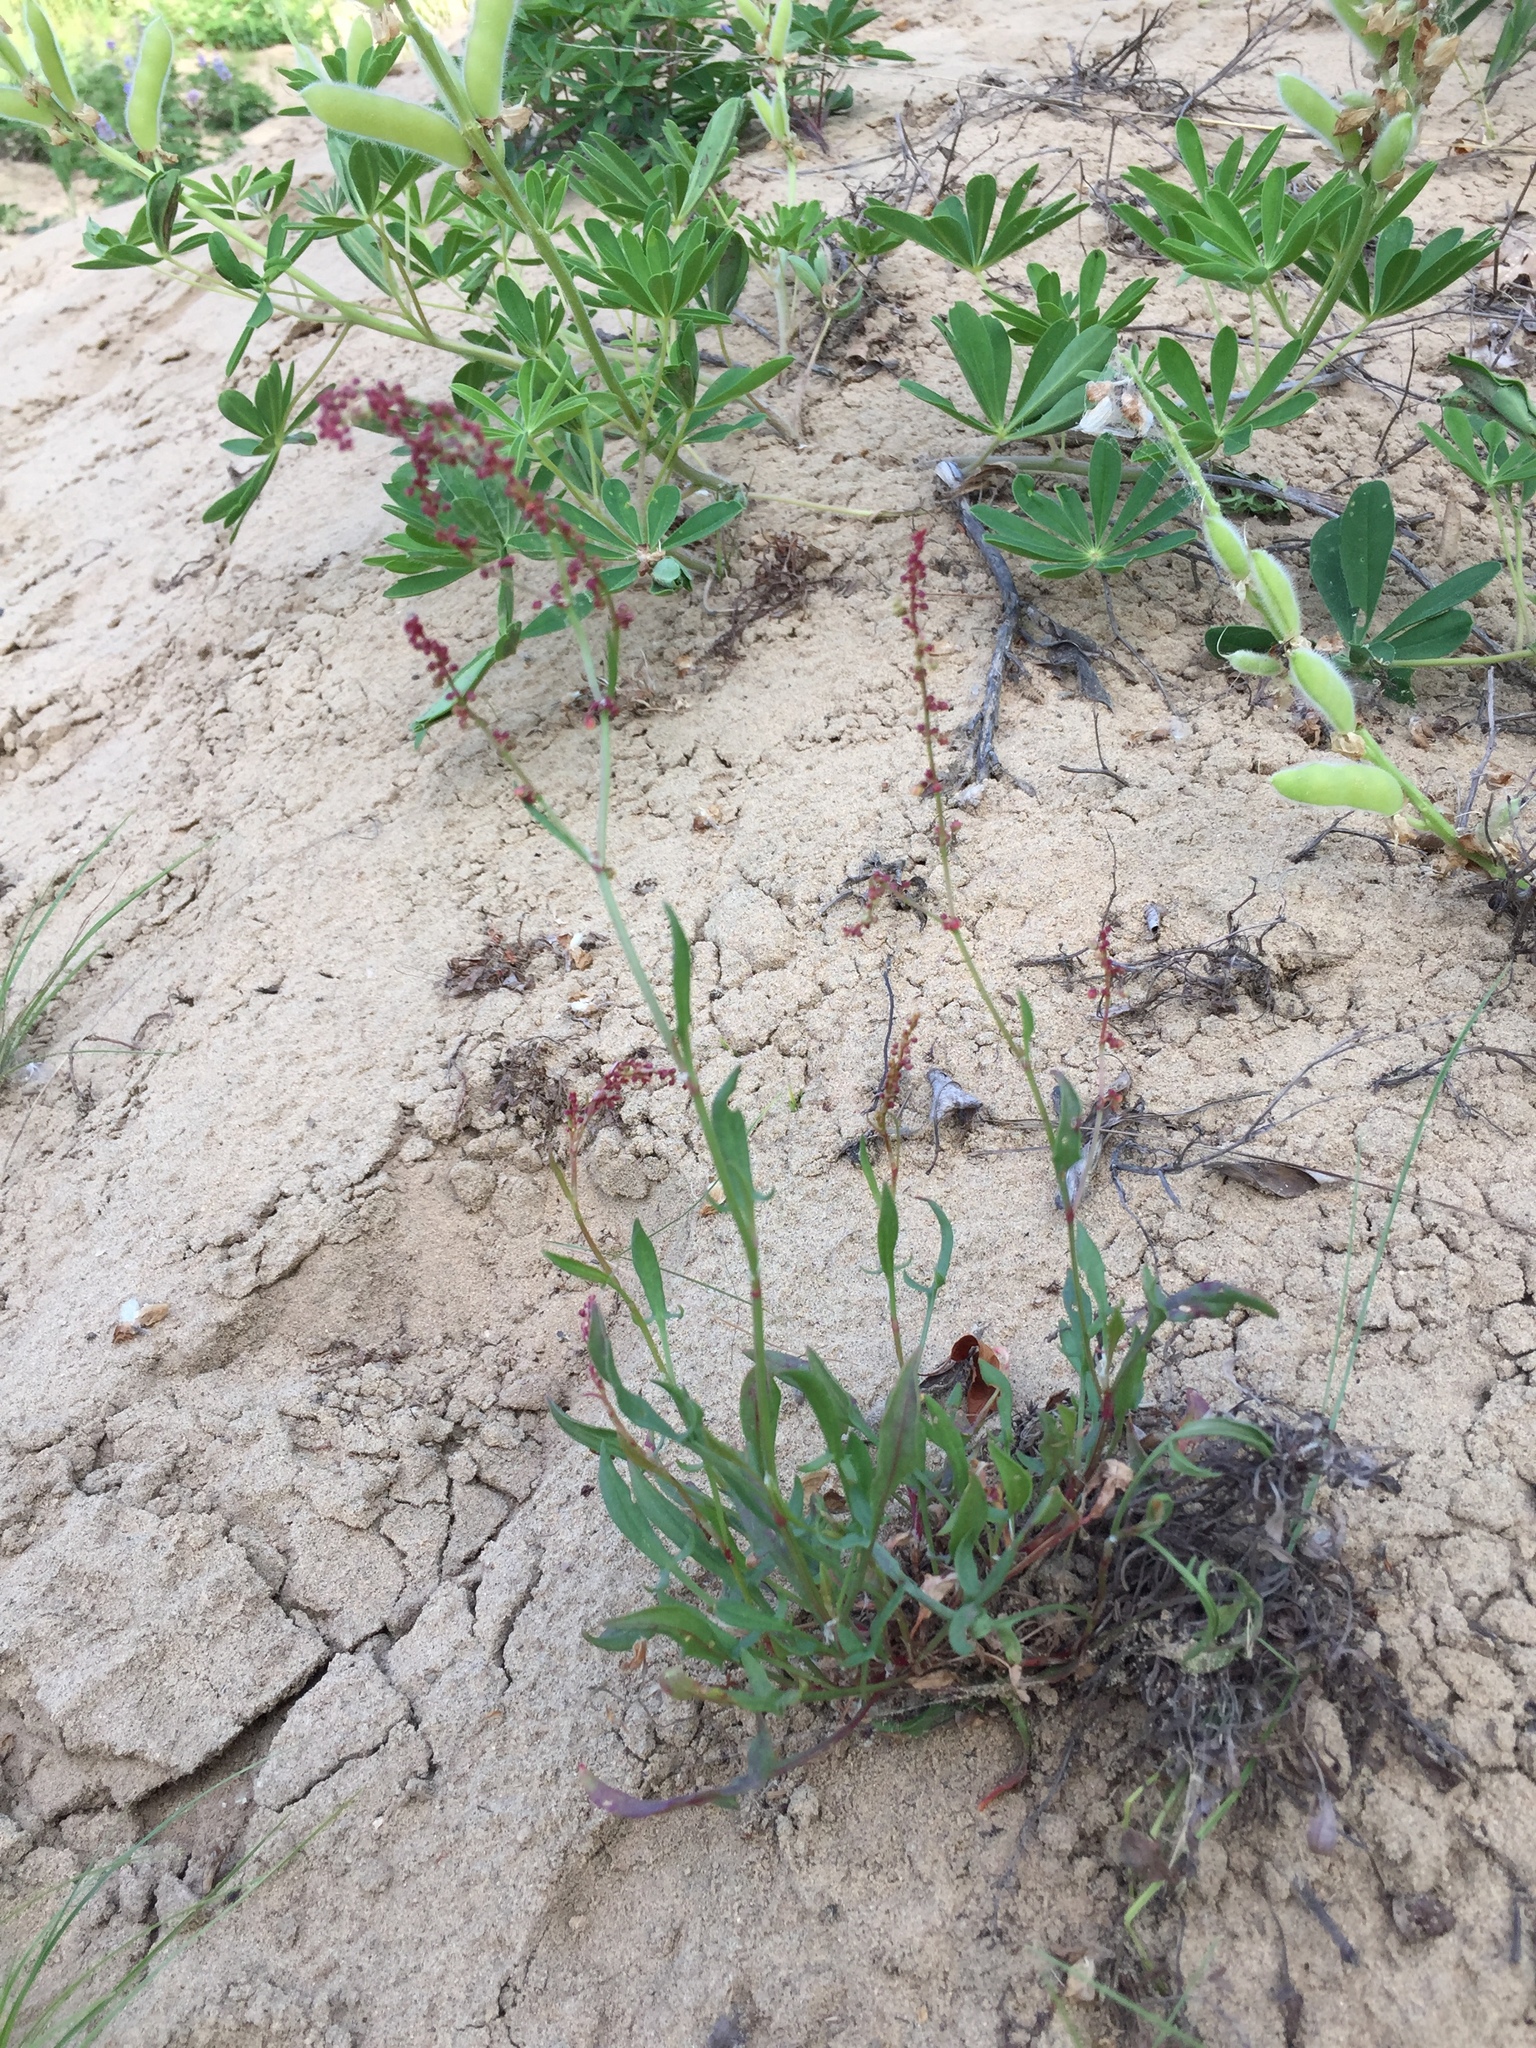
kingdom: Plantae
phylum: Tracheophyta
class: Magnoliopsida
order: Caryophyllales
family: Polygonaceae
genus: Rumex
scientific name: Rumex acetosella
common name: Common sheep sorrel
